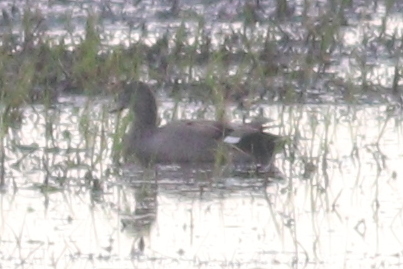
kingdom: Animalia
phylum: Chordata
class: Aves
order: Anseriformes
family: Anatidae
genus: Mareca
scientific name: Mareca strepera
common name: Gadwall
